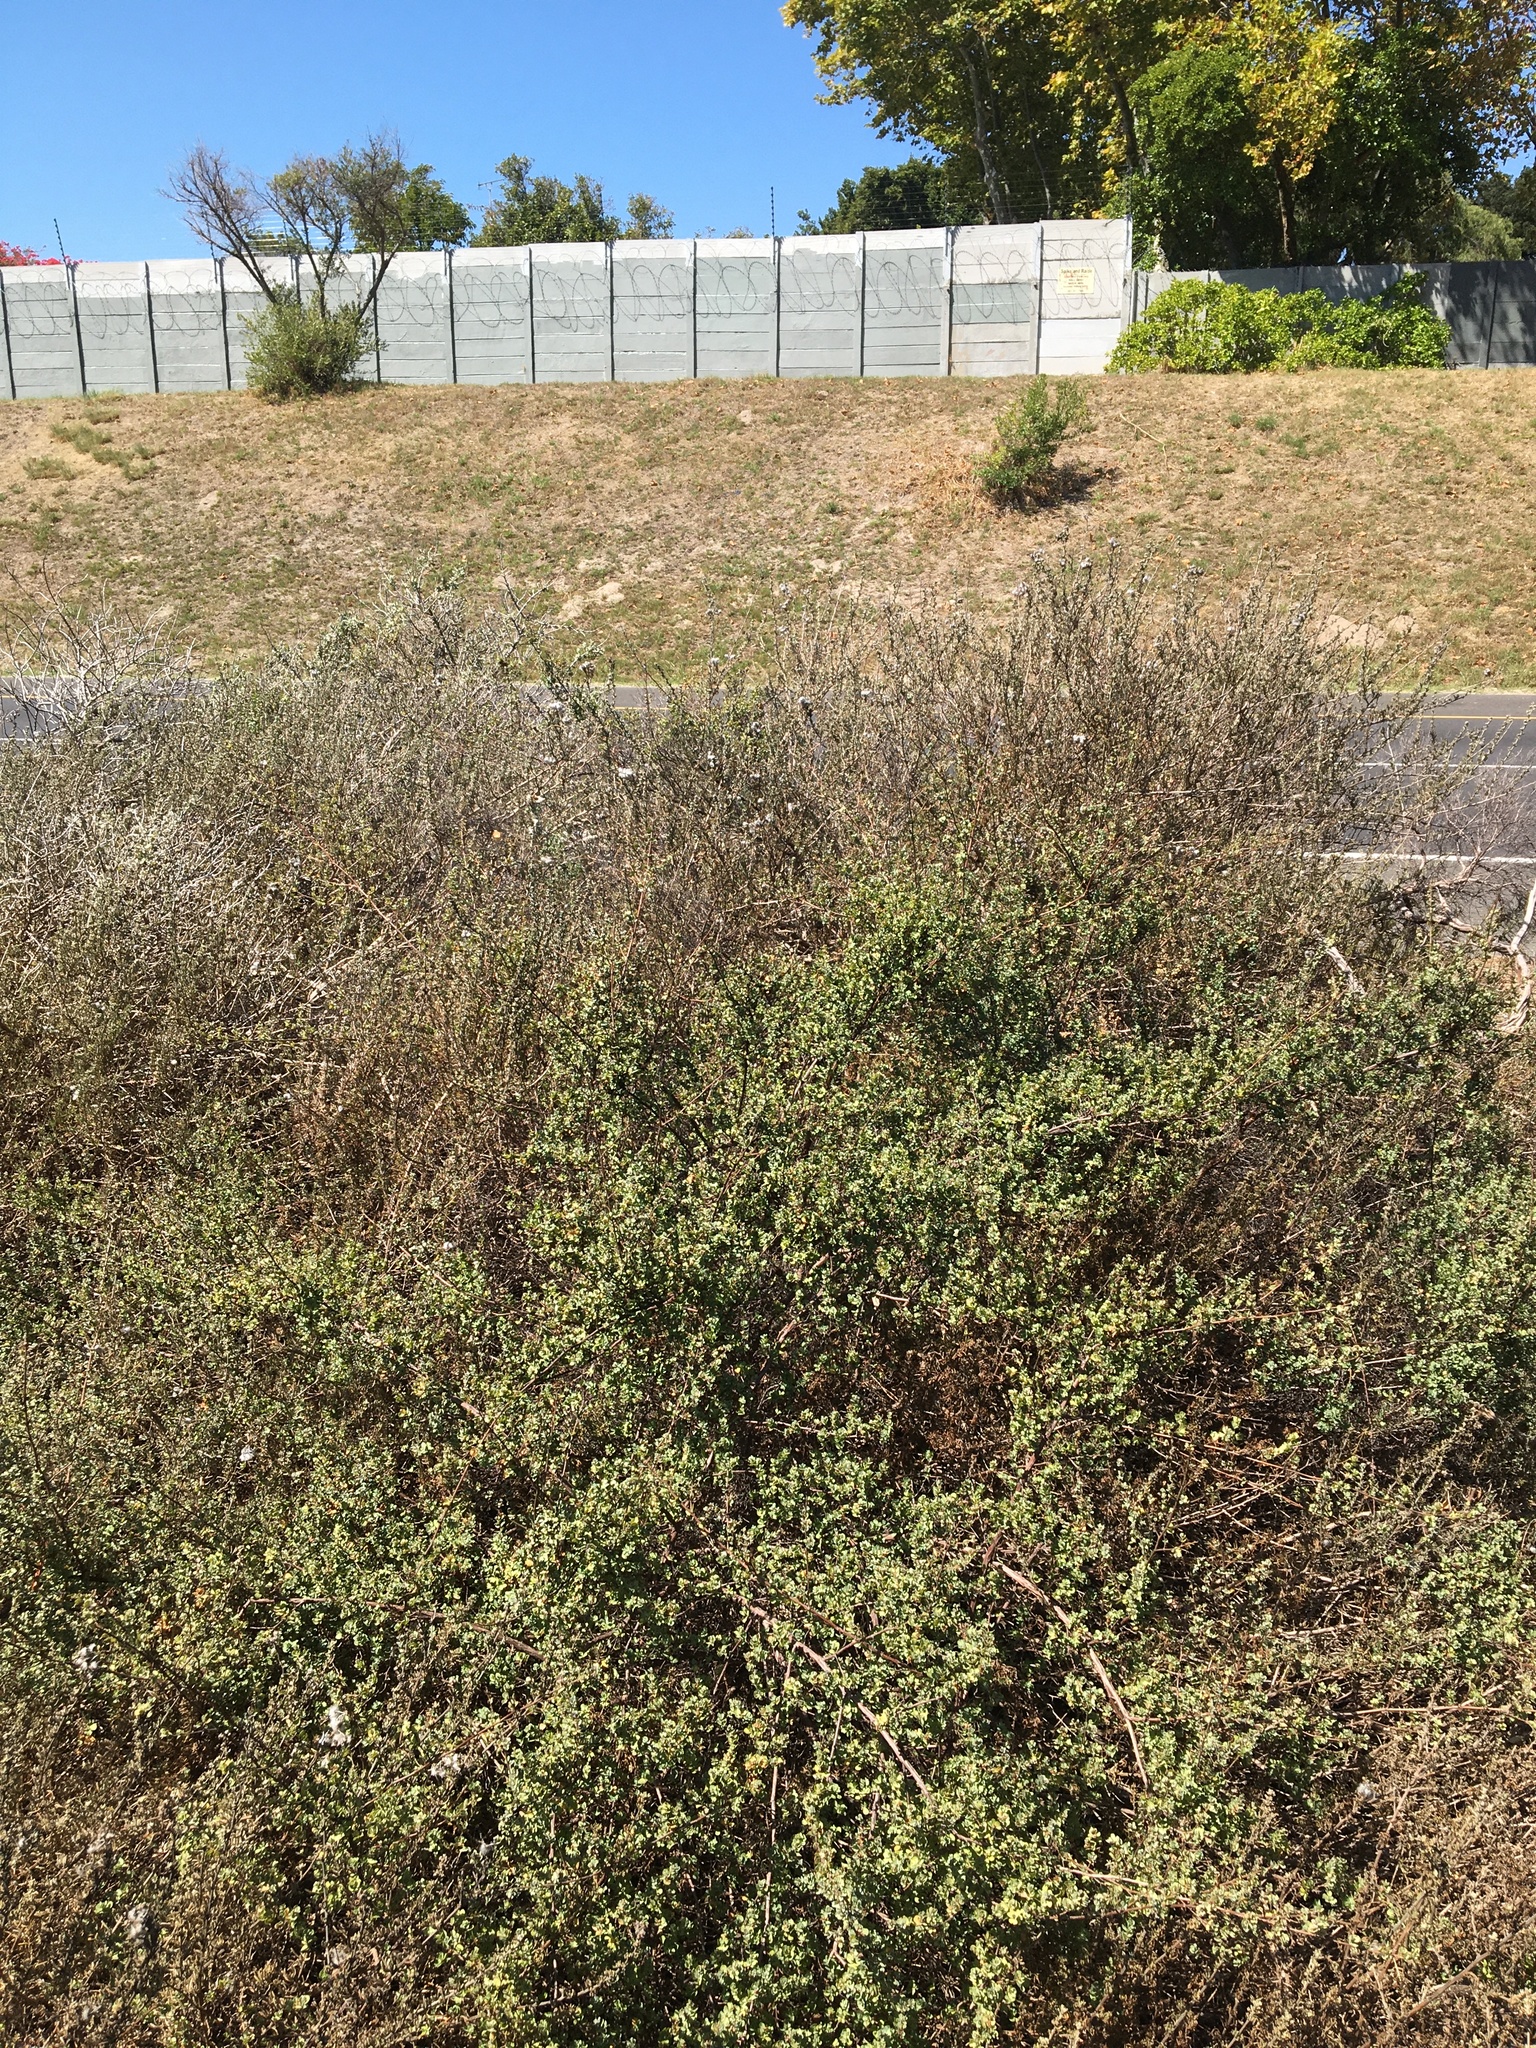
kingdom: Plantae
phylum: Tracheophyta
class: Magnoliopsida
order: Rosales
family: Rosaceae
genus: Cliffortia
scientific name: Cliffortia obcordata
